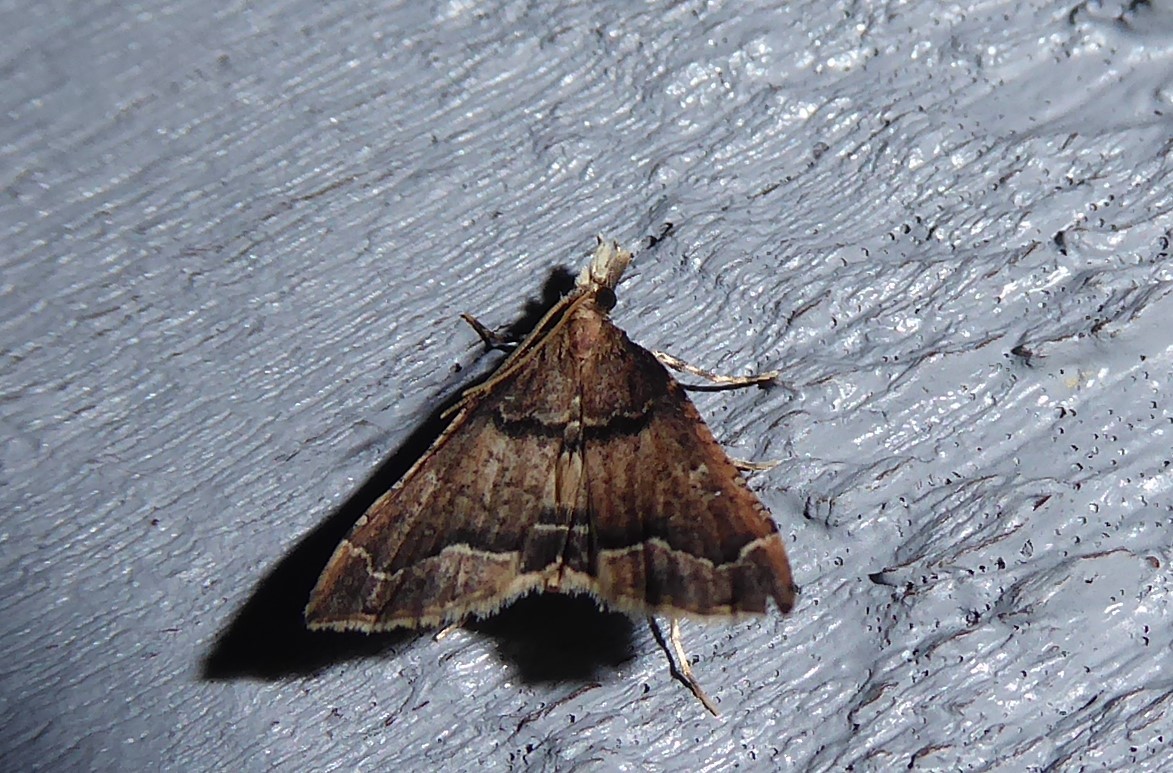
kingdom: Animalia
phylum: Arthropoda
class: Insecta
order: Lepidoptera
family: Crambidae
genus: Diplopseustis
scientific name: Diplopseustis perieresalis
